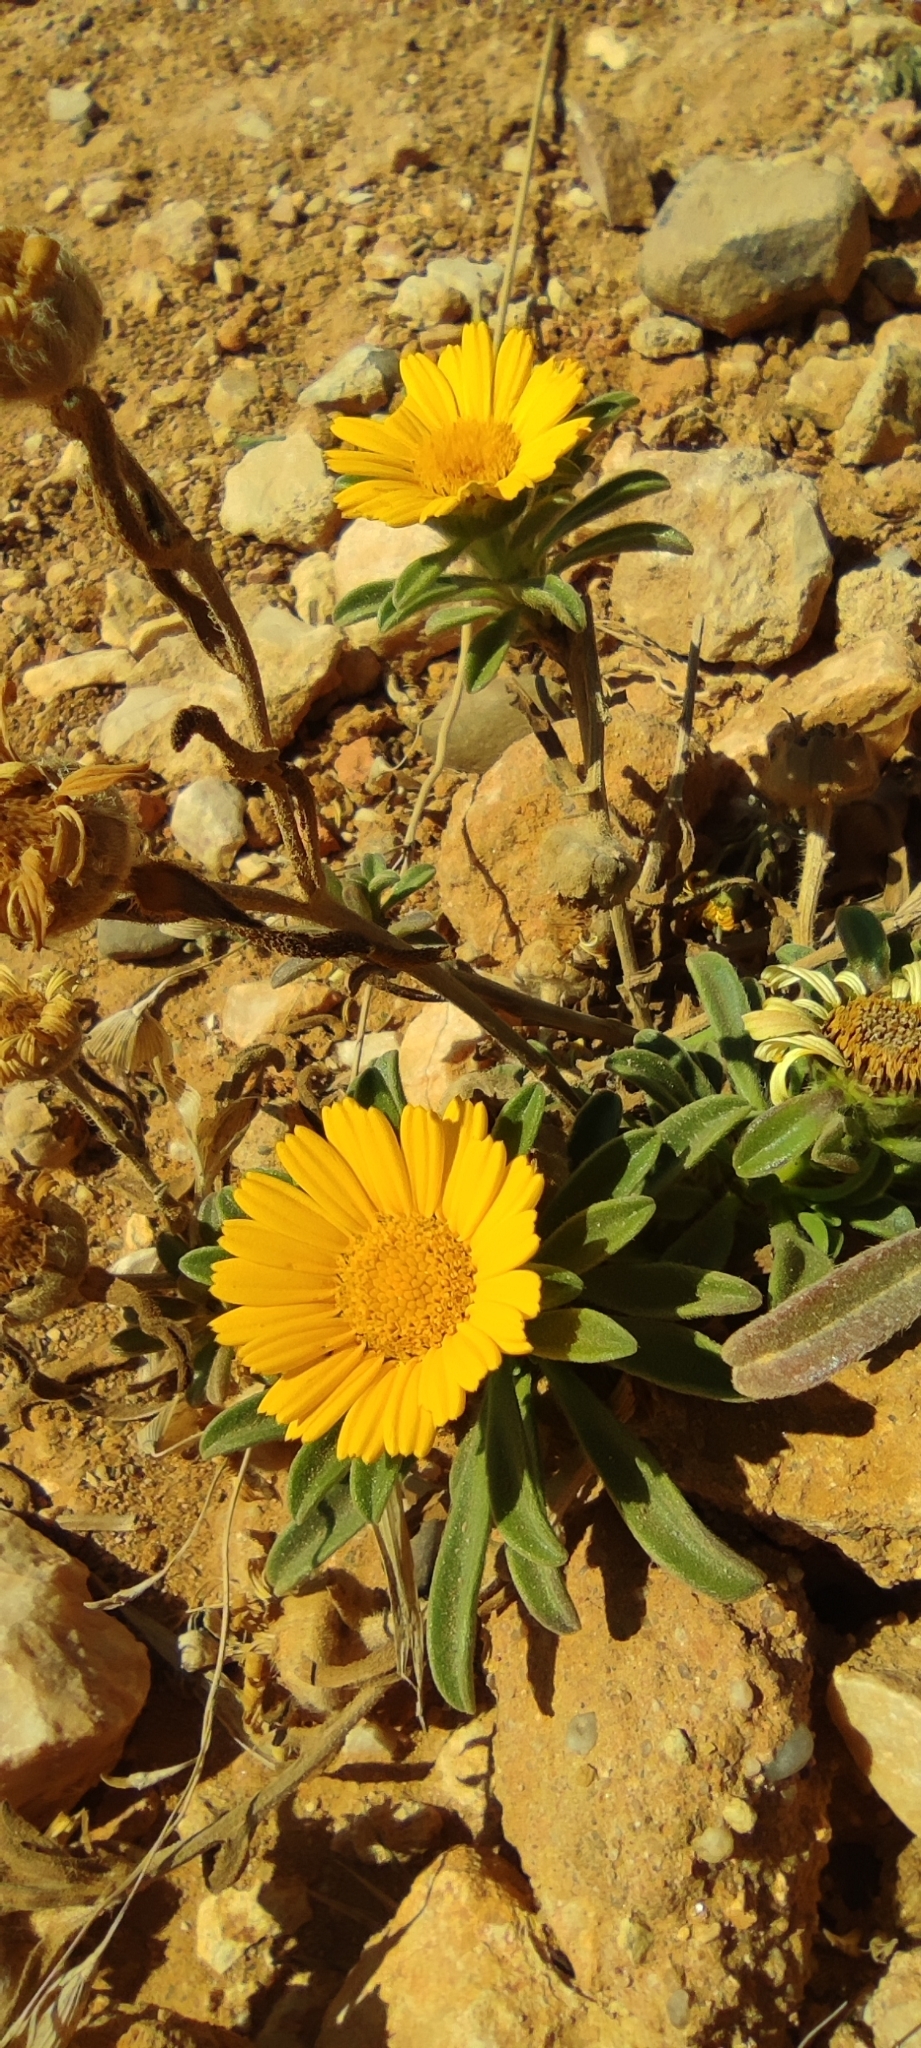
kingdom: Plantae
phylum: Tracheophyta
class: Magnoliopsida
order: Asterales
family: Asteraceae
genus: Pallenis
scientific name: Pallenis maritima
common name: Golden coin daisy
